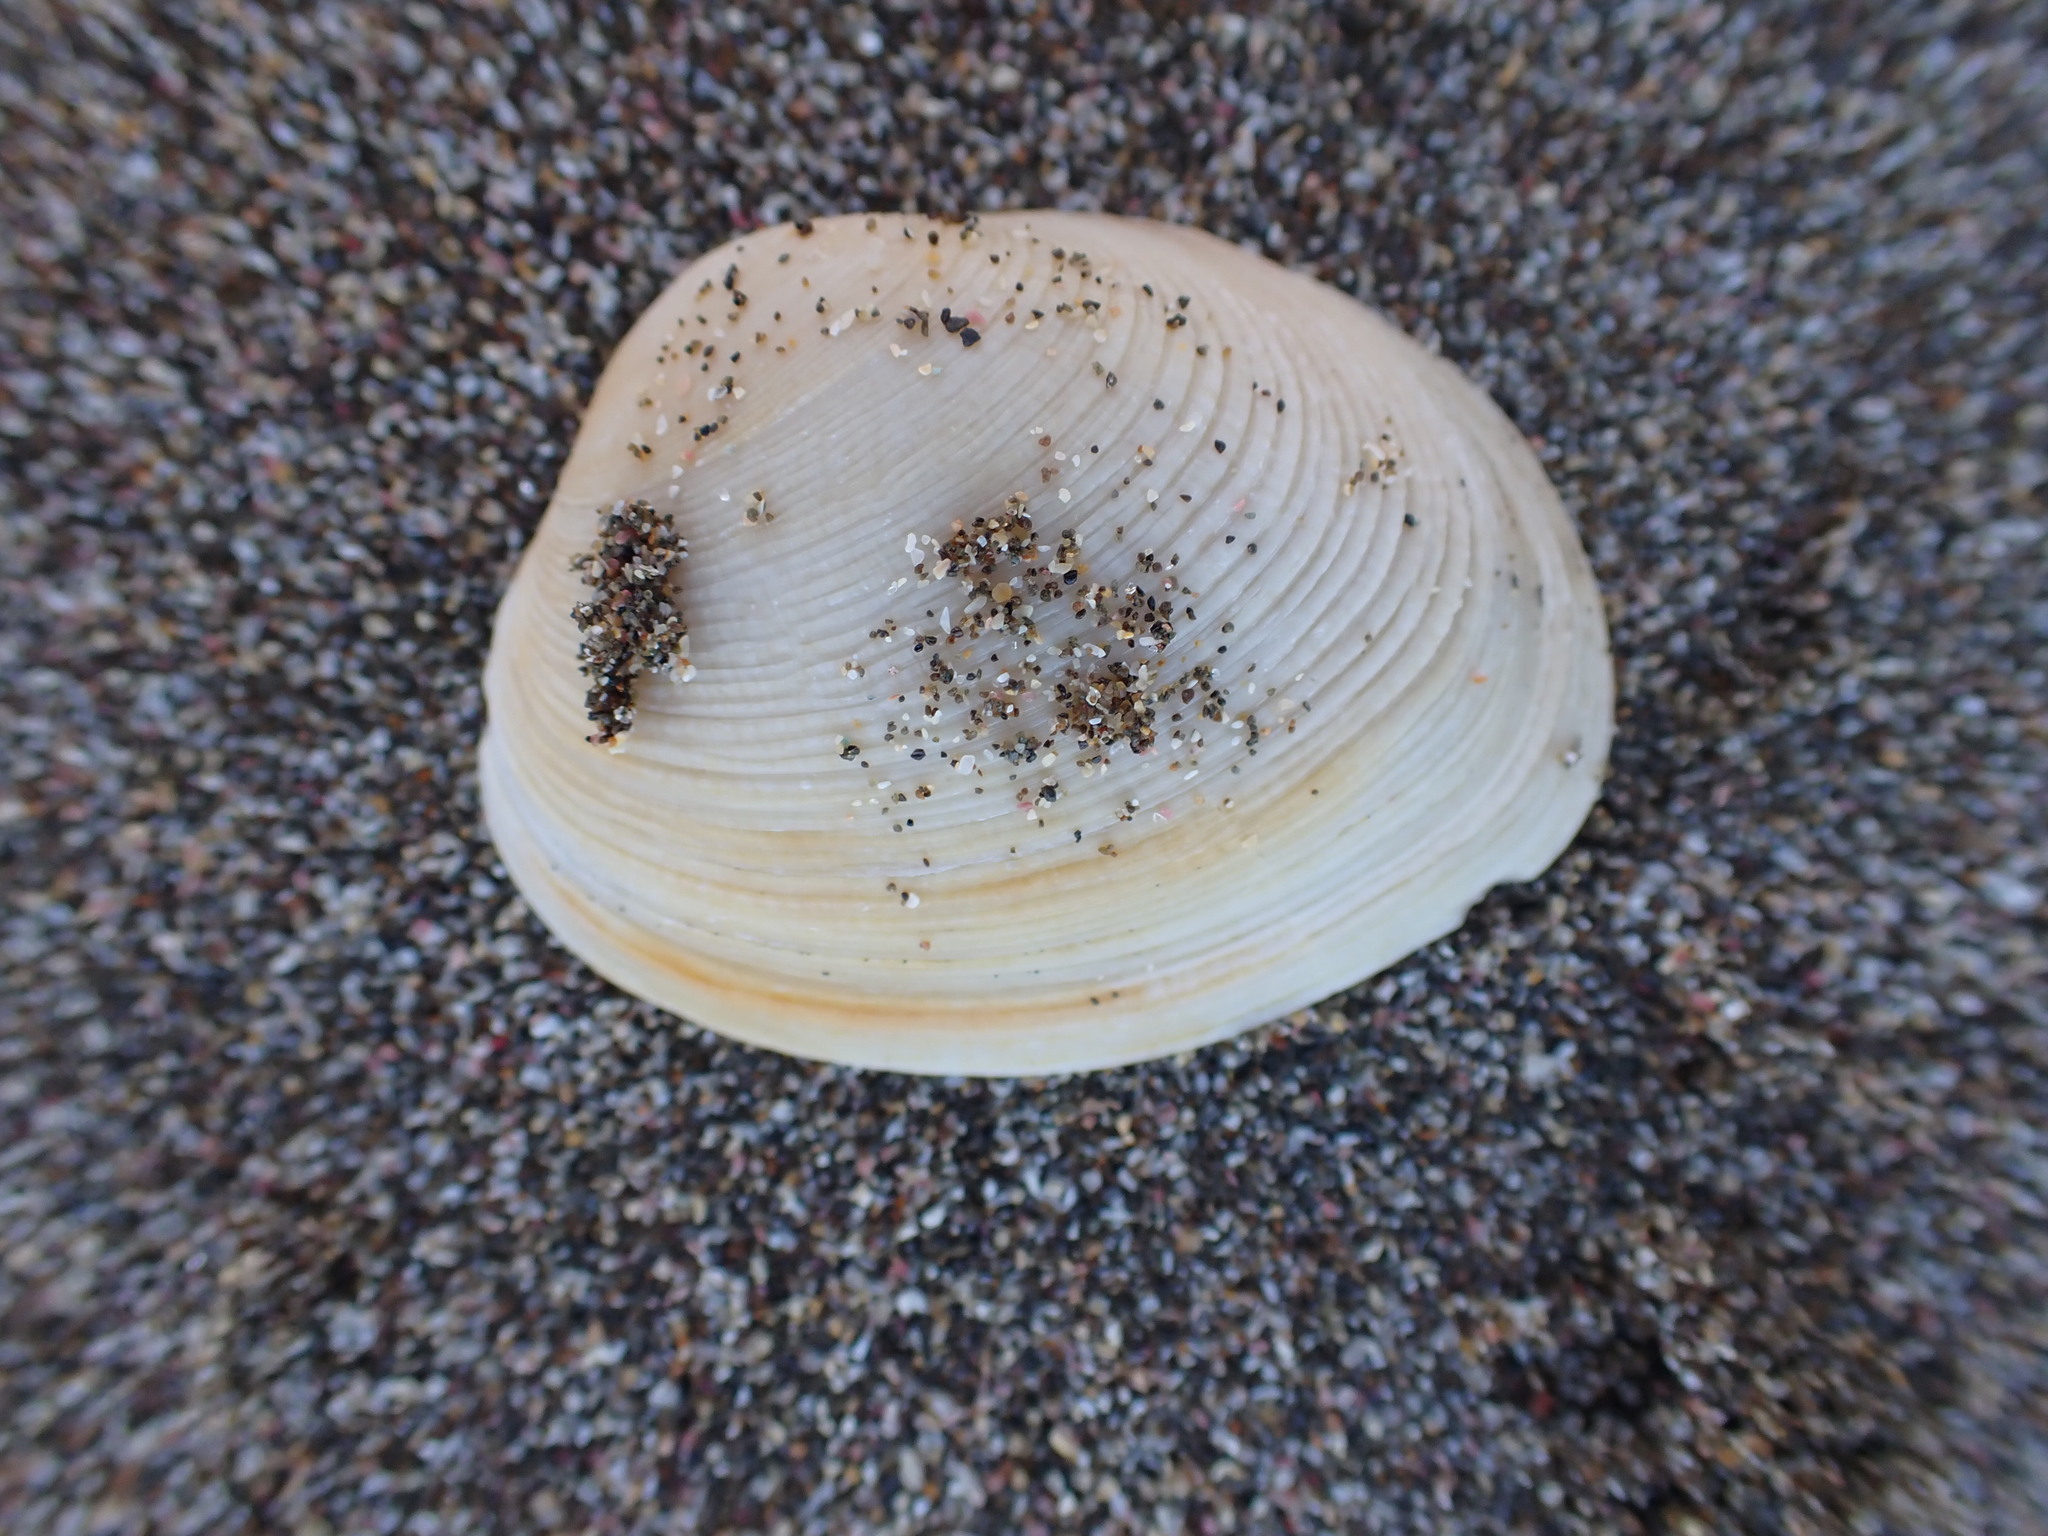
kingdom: Animalia
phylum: Mollusca
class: Bivalvia
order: Venerida
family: Veneridae
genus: Venerupis
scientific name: Venerupis largillierti
